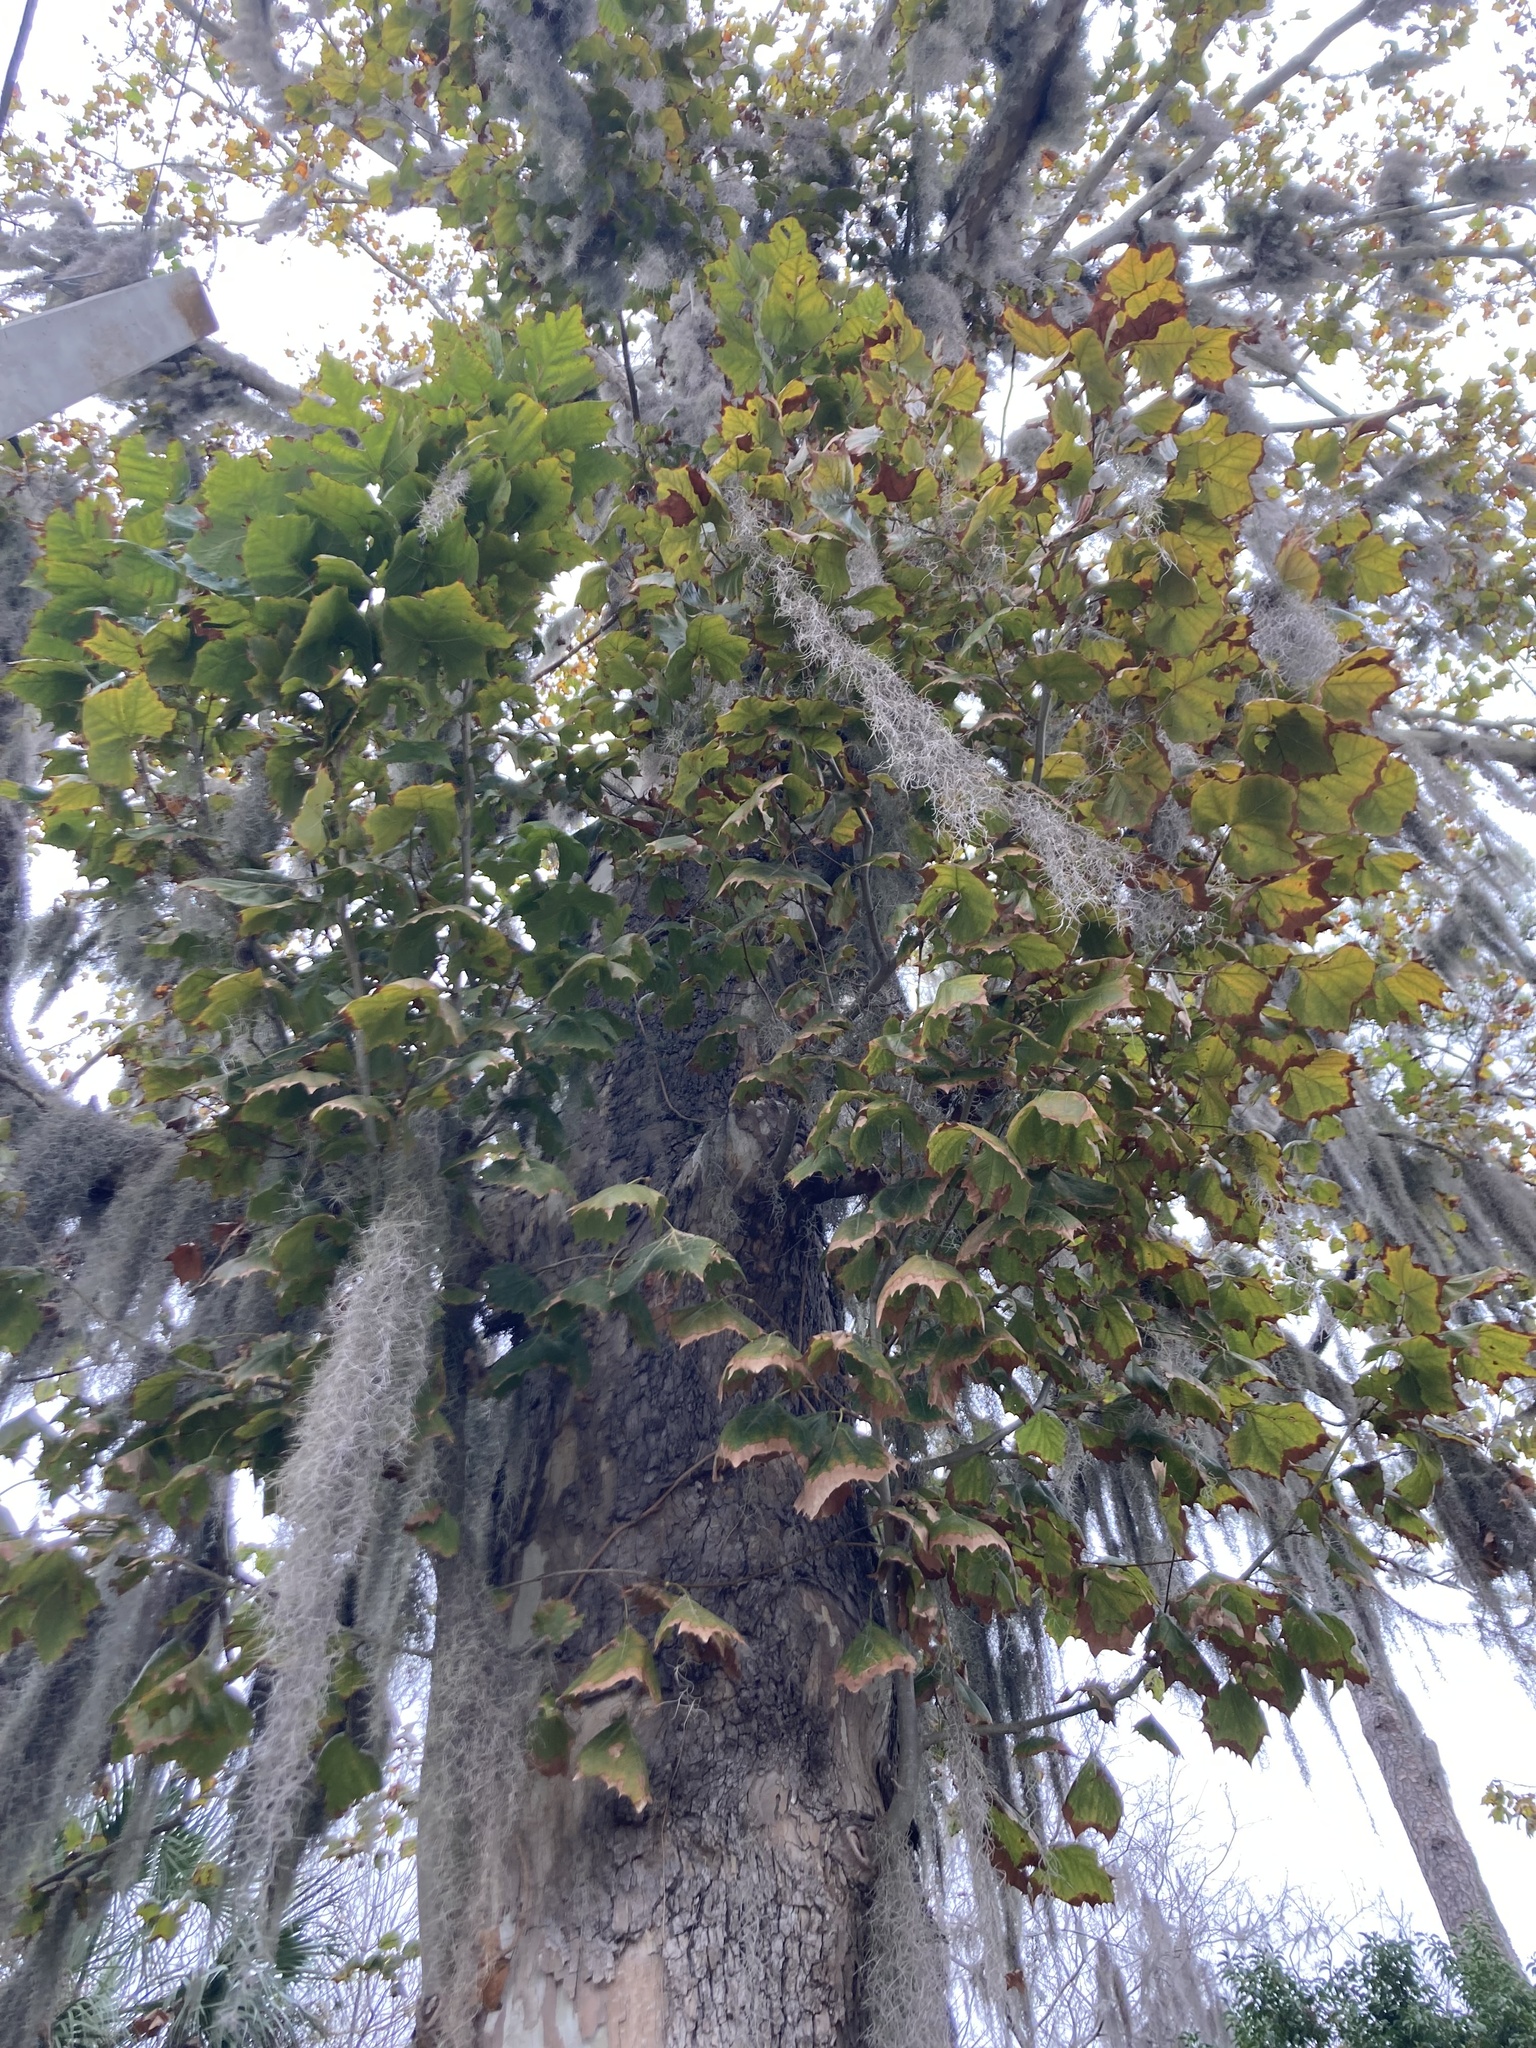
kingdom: Plantae
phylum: Tracheophyta
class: Magnoliopsida
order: Proteales
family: Platanaceae
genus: Platanus
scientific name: Platanus occidentalis
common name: American sycamore
